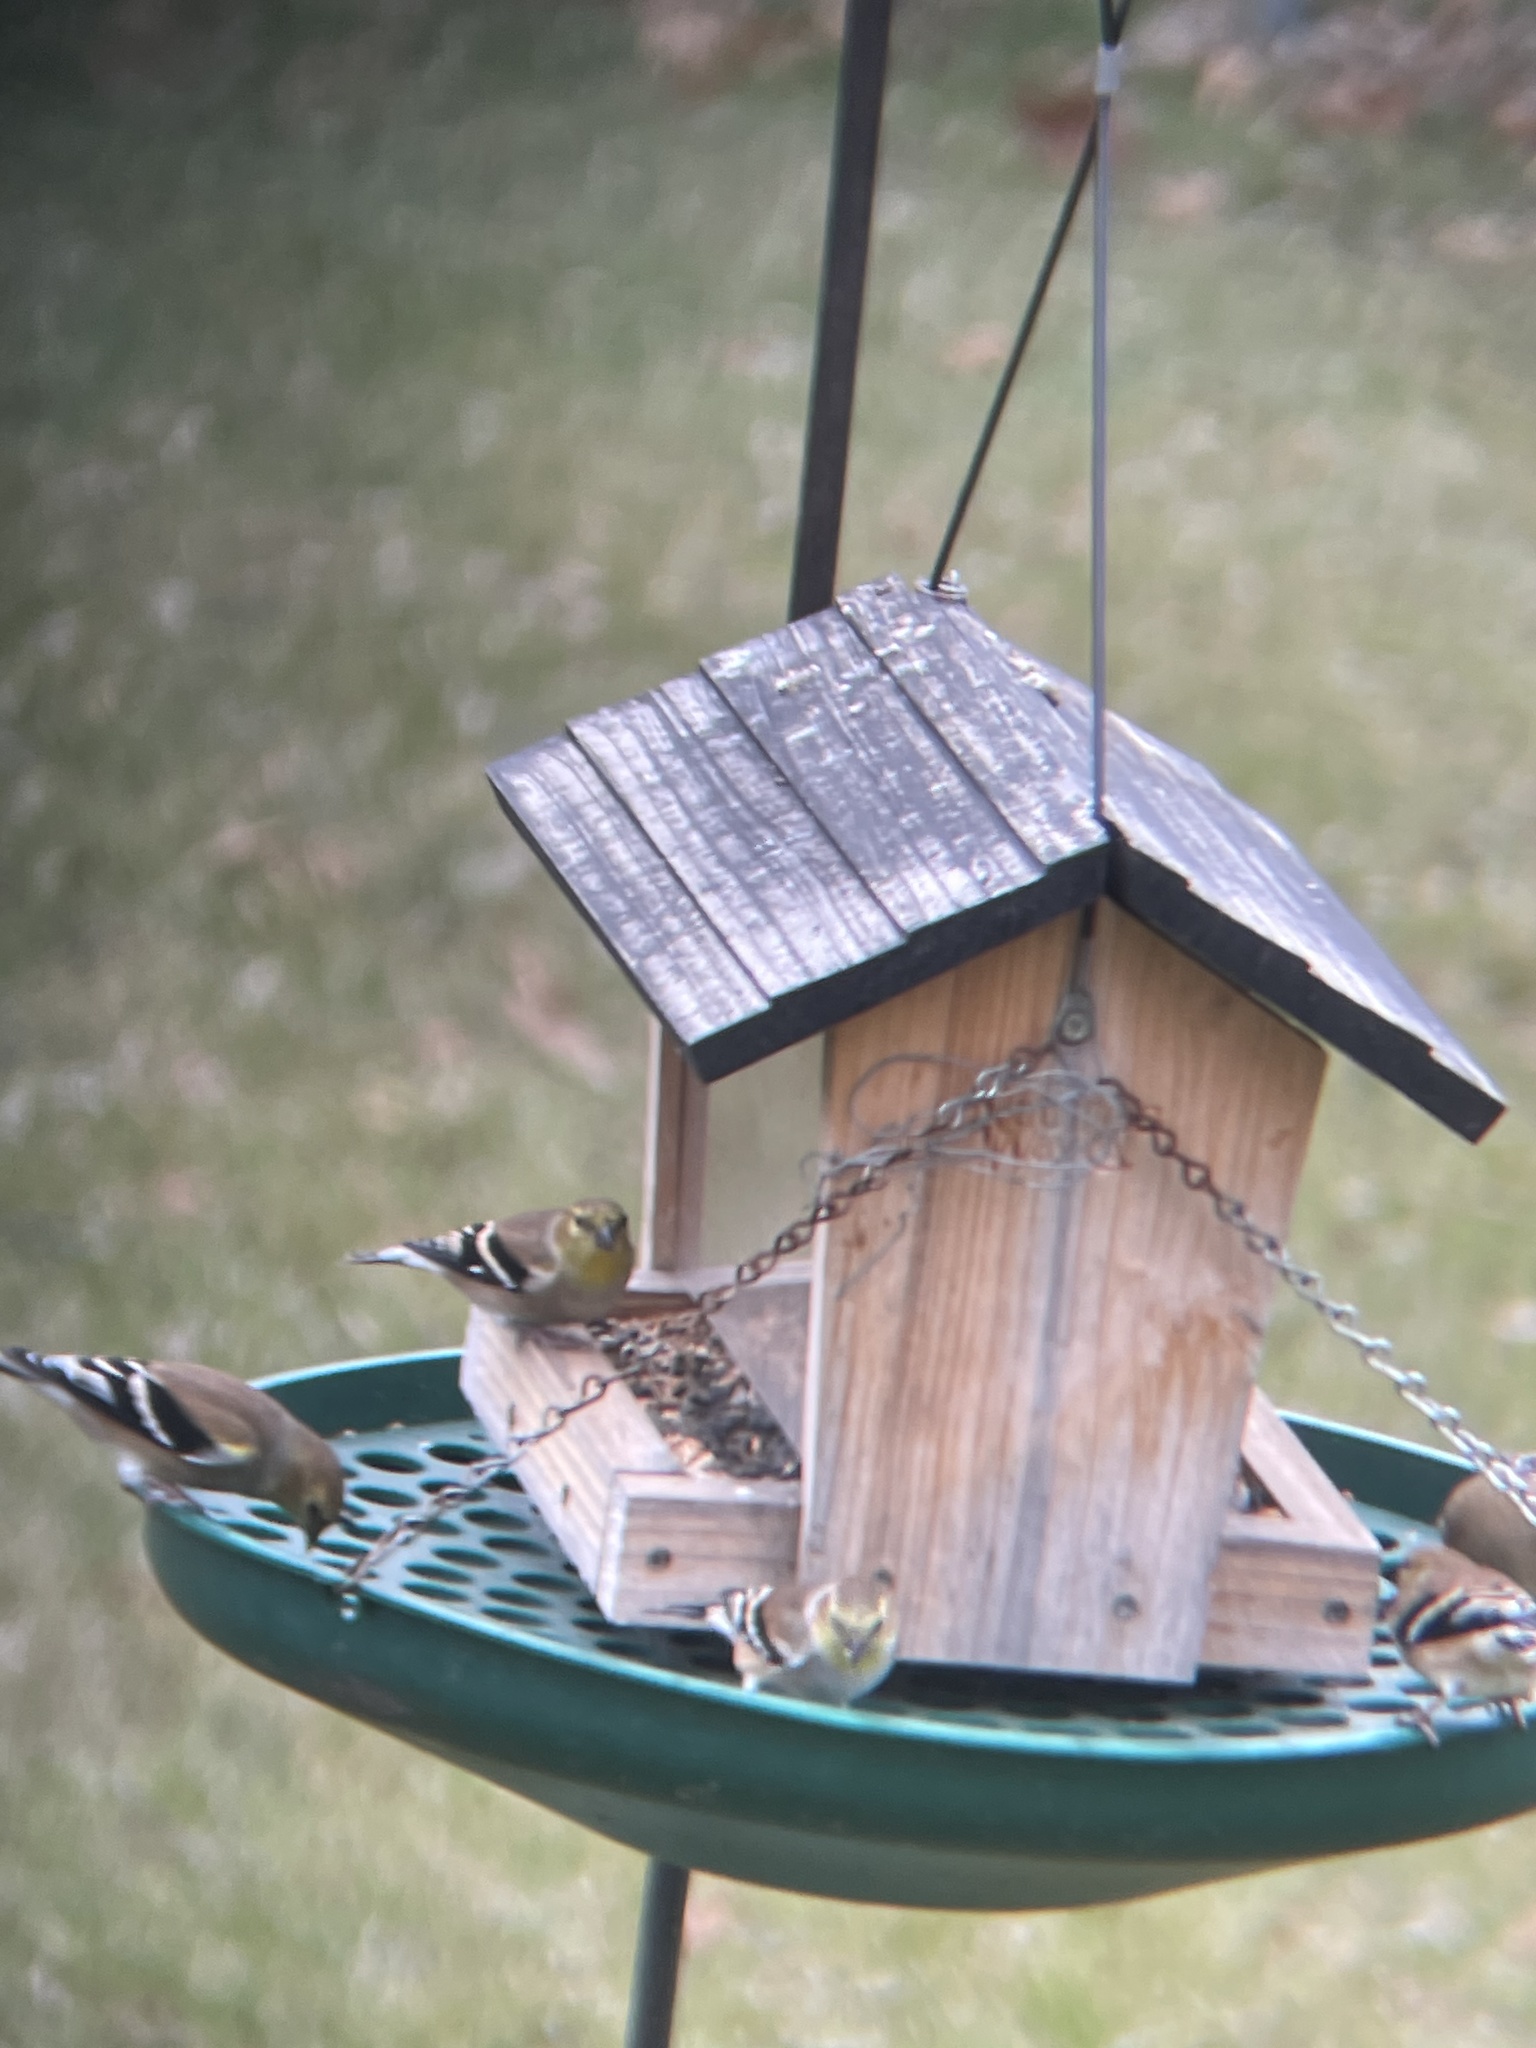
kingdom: Animalia
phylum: Chordata
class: Aves
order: Passeriformes
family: Fringillidae
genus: Spinus
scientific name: Spinus tristis
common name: American goldfinch
